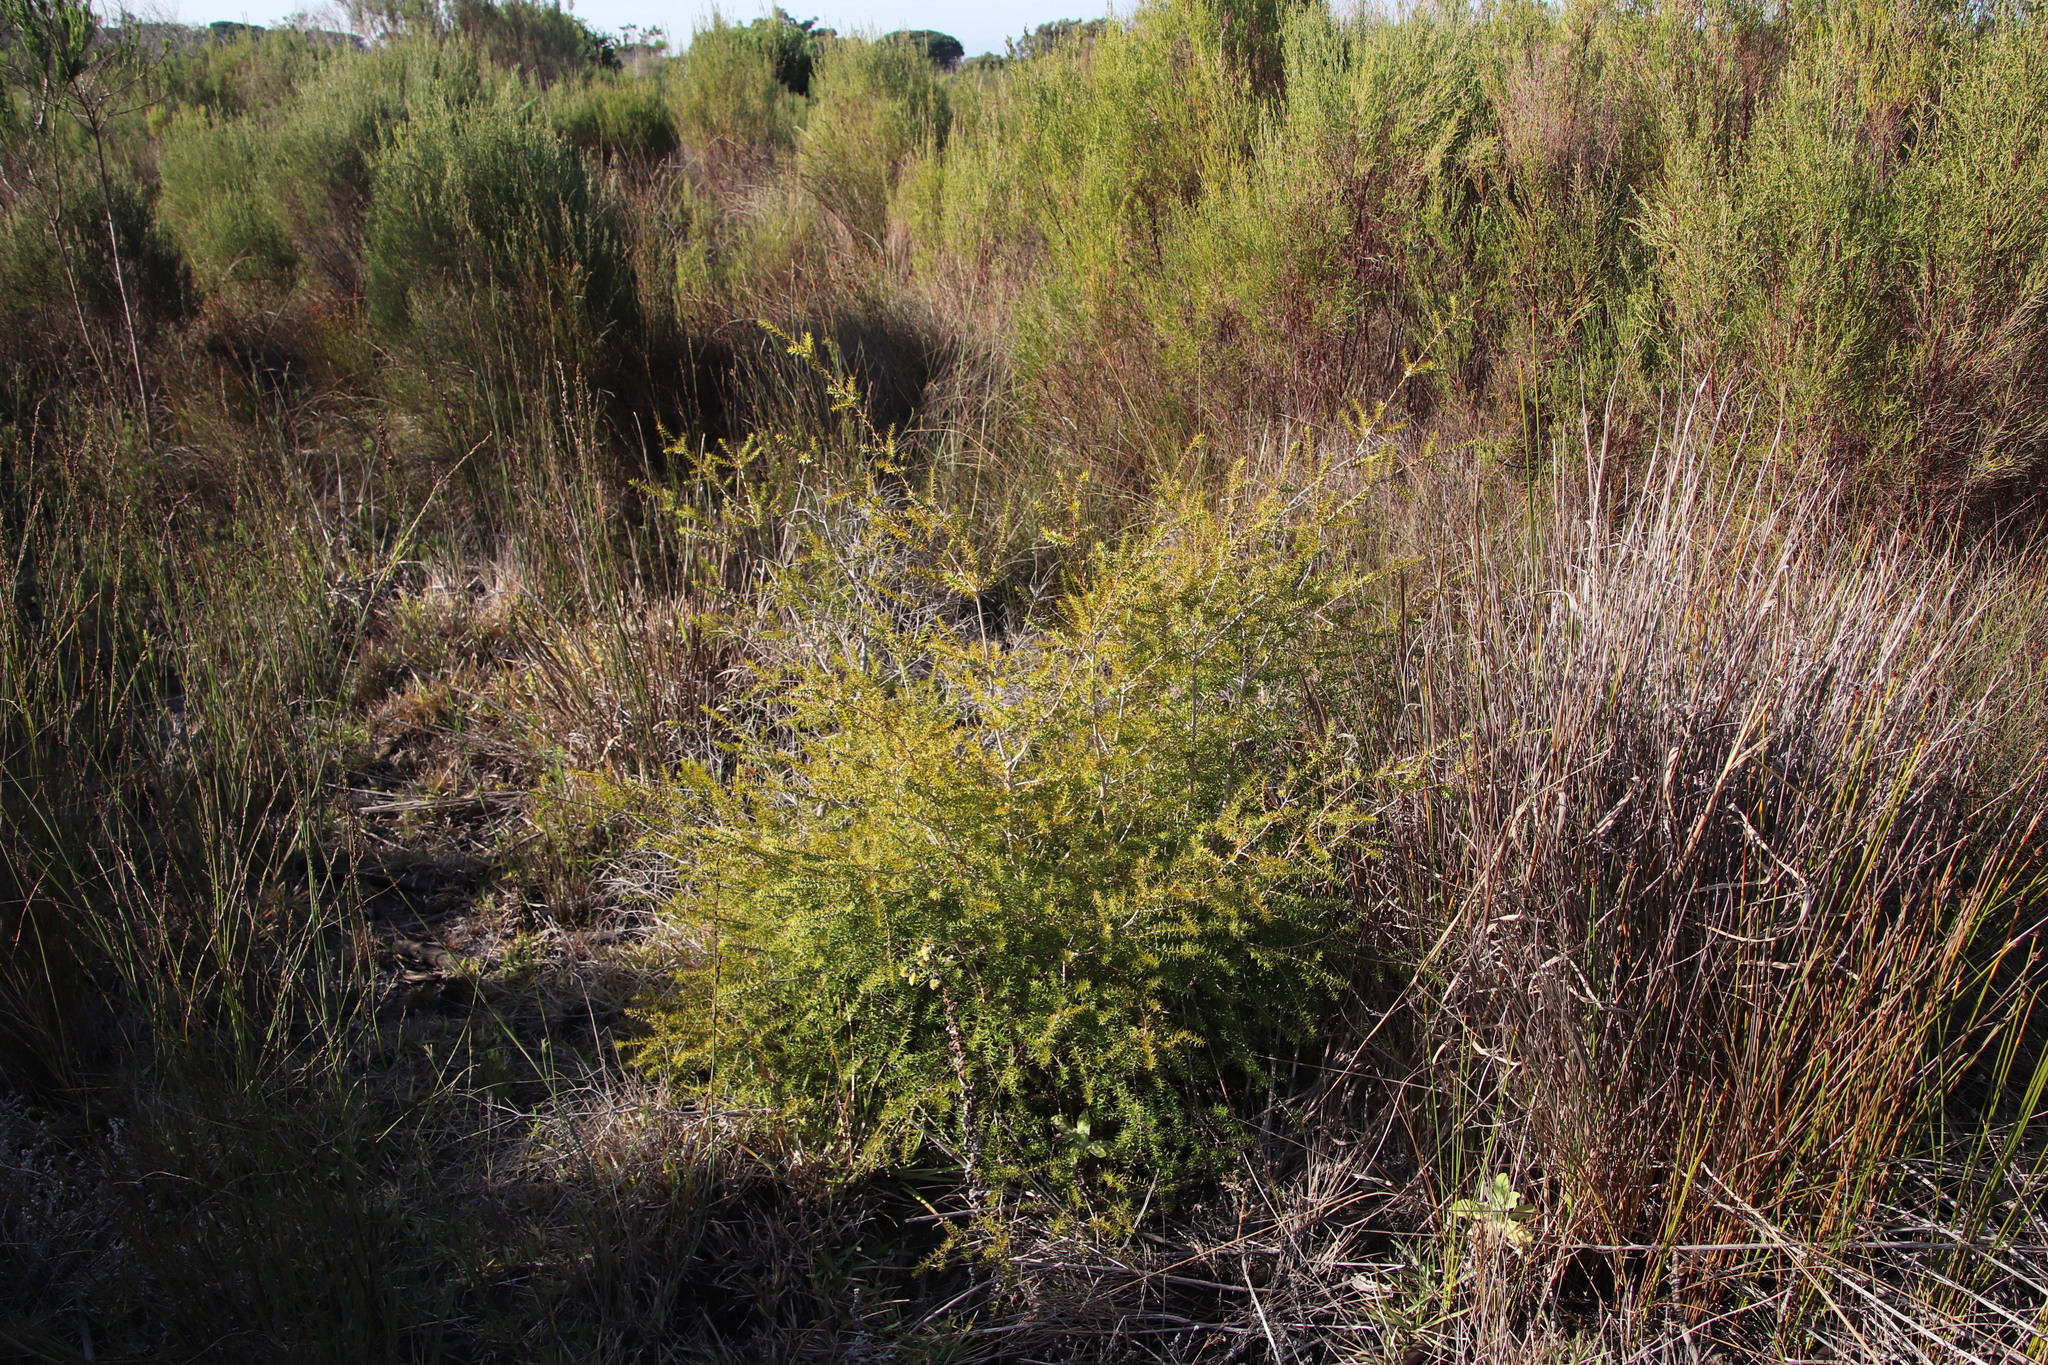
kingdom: Plantae
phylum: Tracheophyta
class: Magnoliopsida
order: Myrtales
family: Myrtaceae
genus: Melaleuca
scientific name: Melaleuca styphelioides
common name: Prickly paperbark
